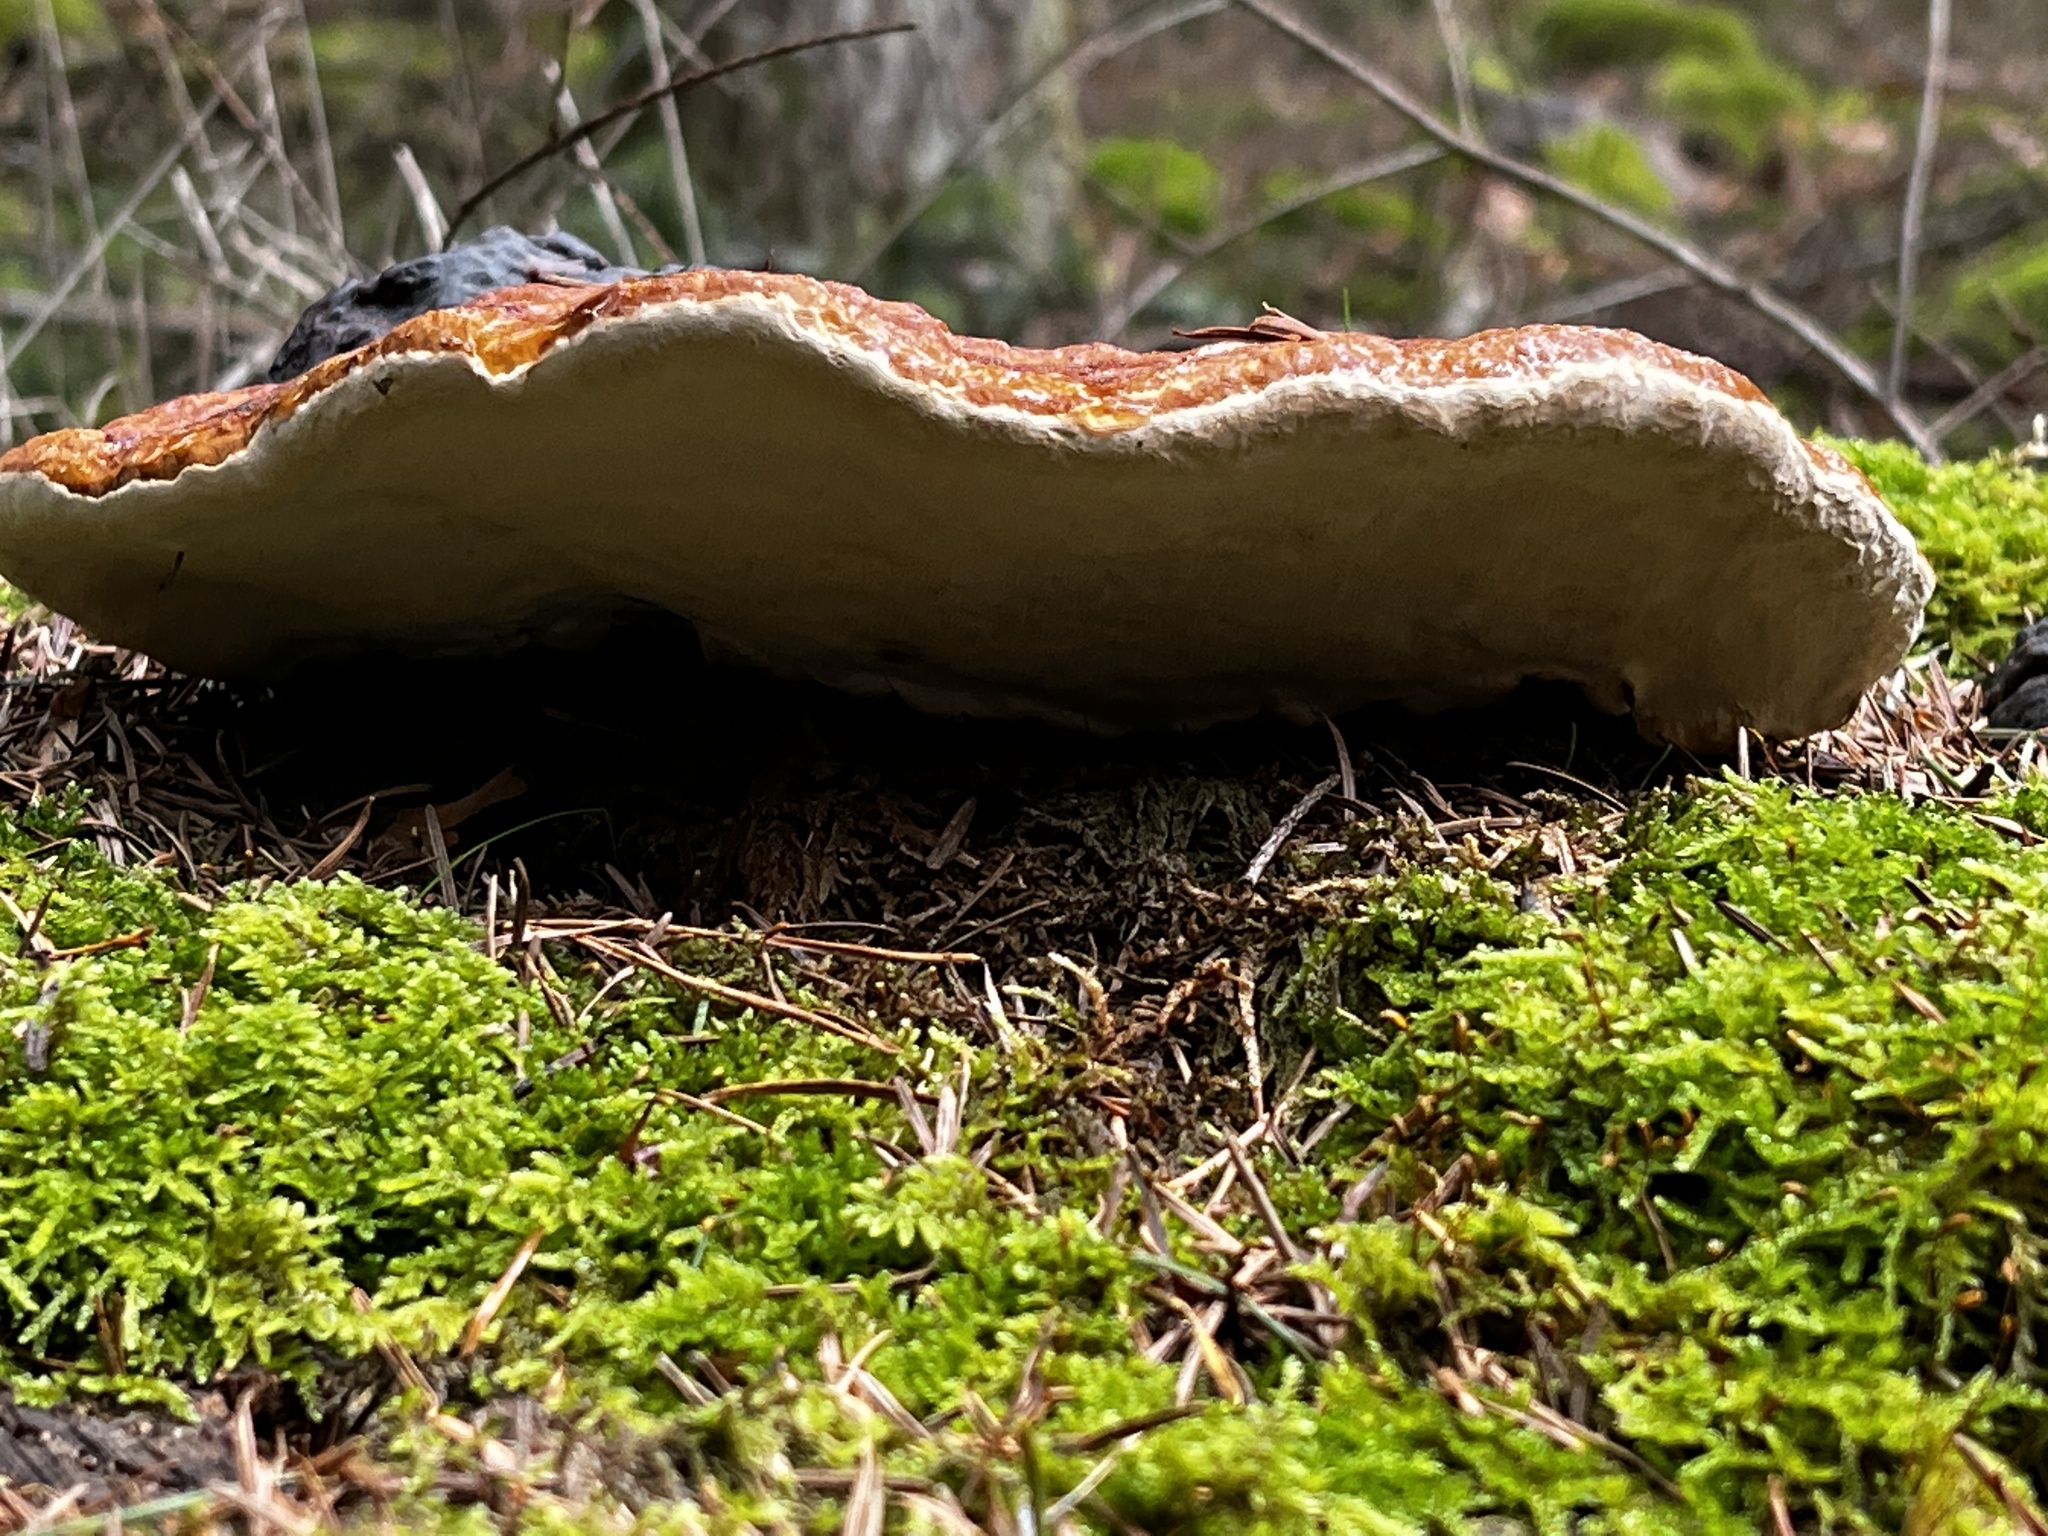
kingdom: Fungi
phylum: Basidiomycota
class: Agaricomycetes
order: Polyporales
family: Fomitopsidaceae
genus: Fomitopsis
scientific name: Fomitopsis pinicola
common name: Red-belted bracket
